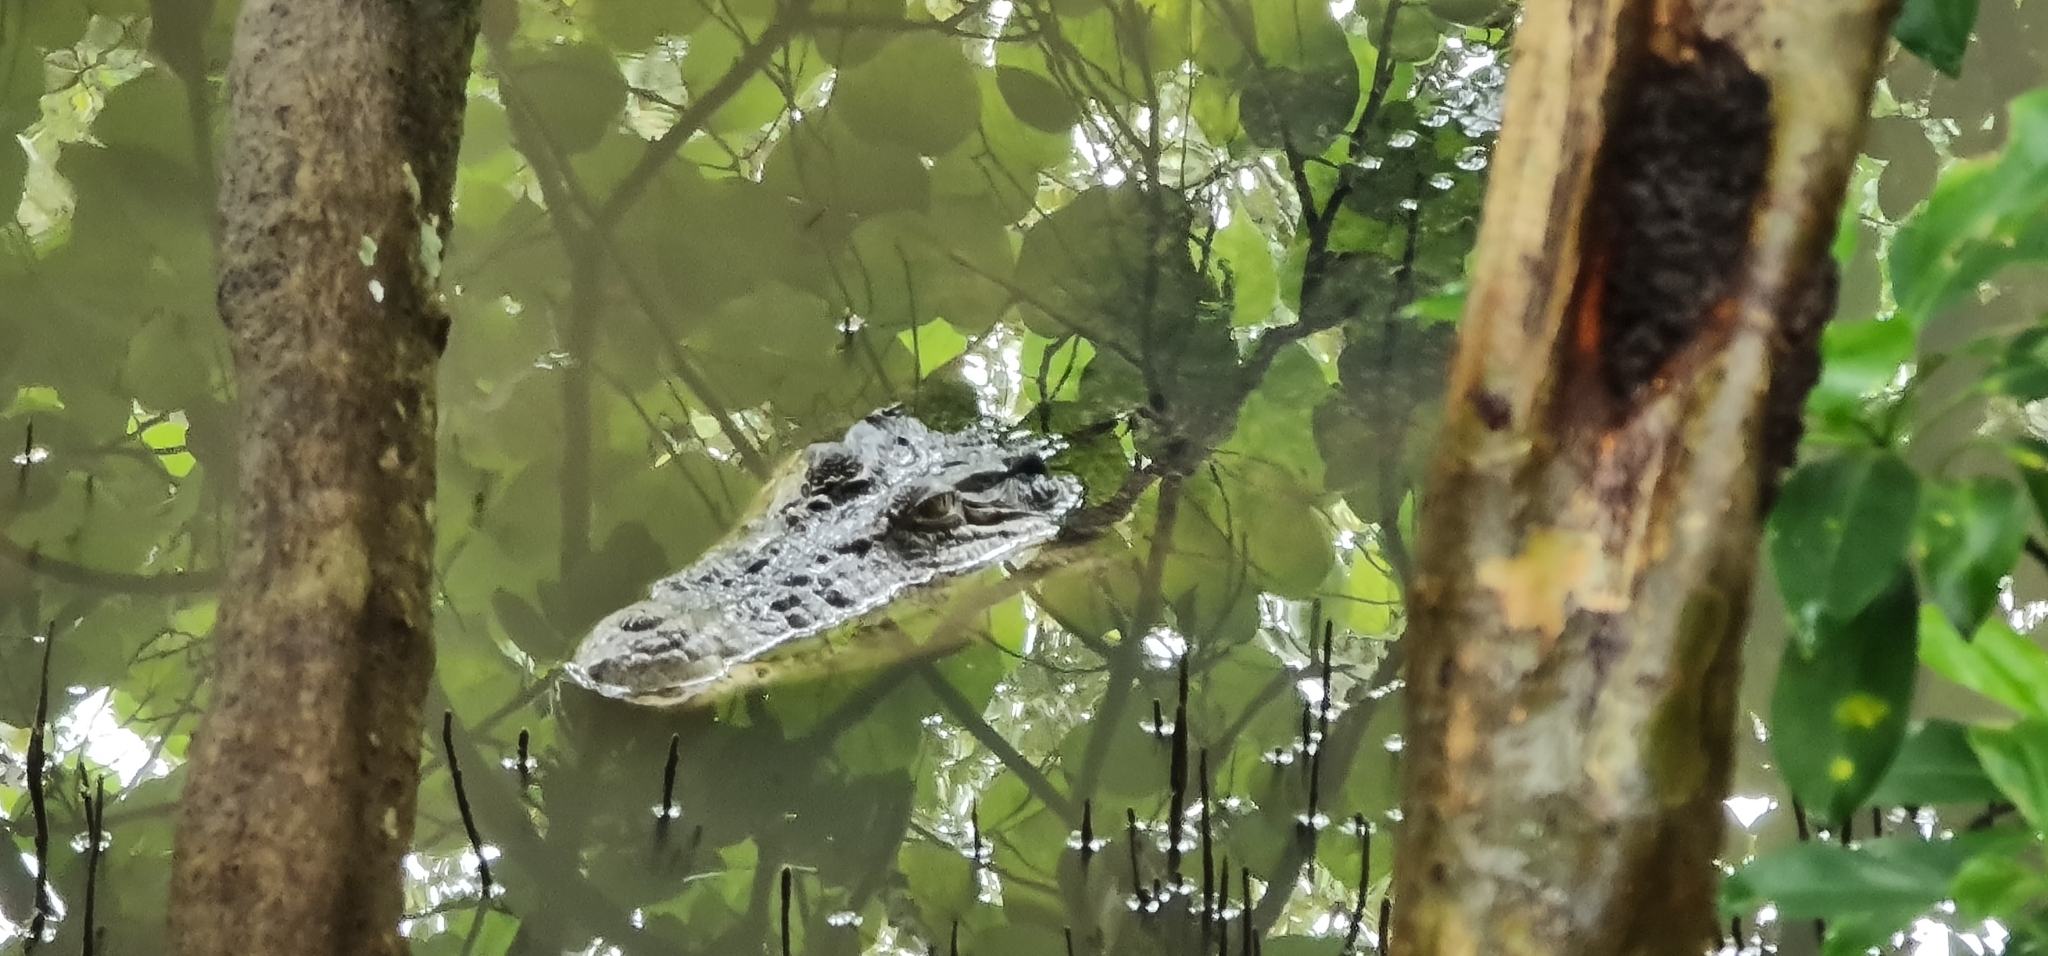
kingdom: Animalia
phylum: Chordata
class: Crocodylia
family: Crocodylidae
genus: Crocodylus
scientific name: Crocodylus porosus
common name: Saltwater crocodile
